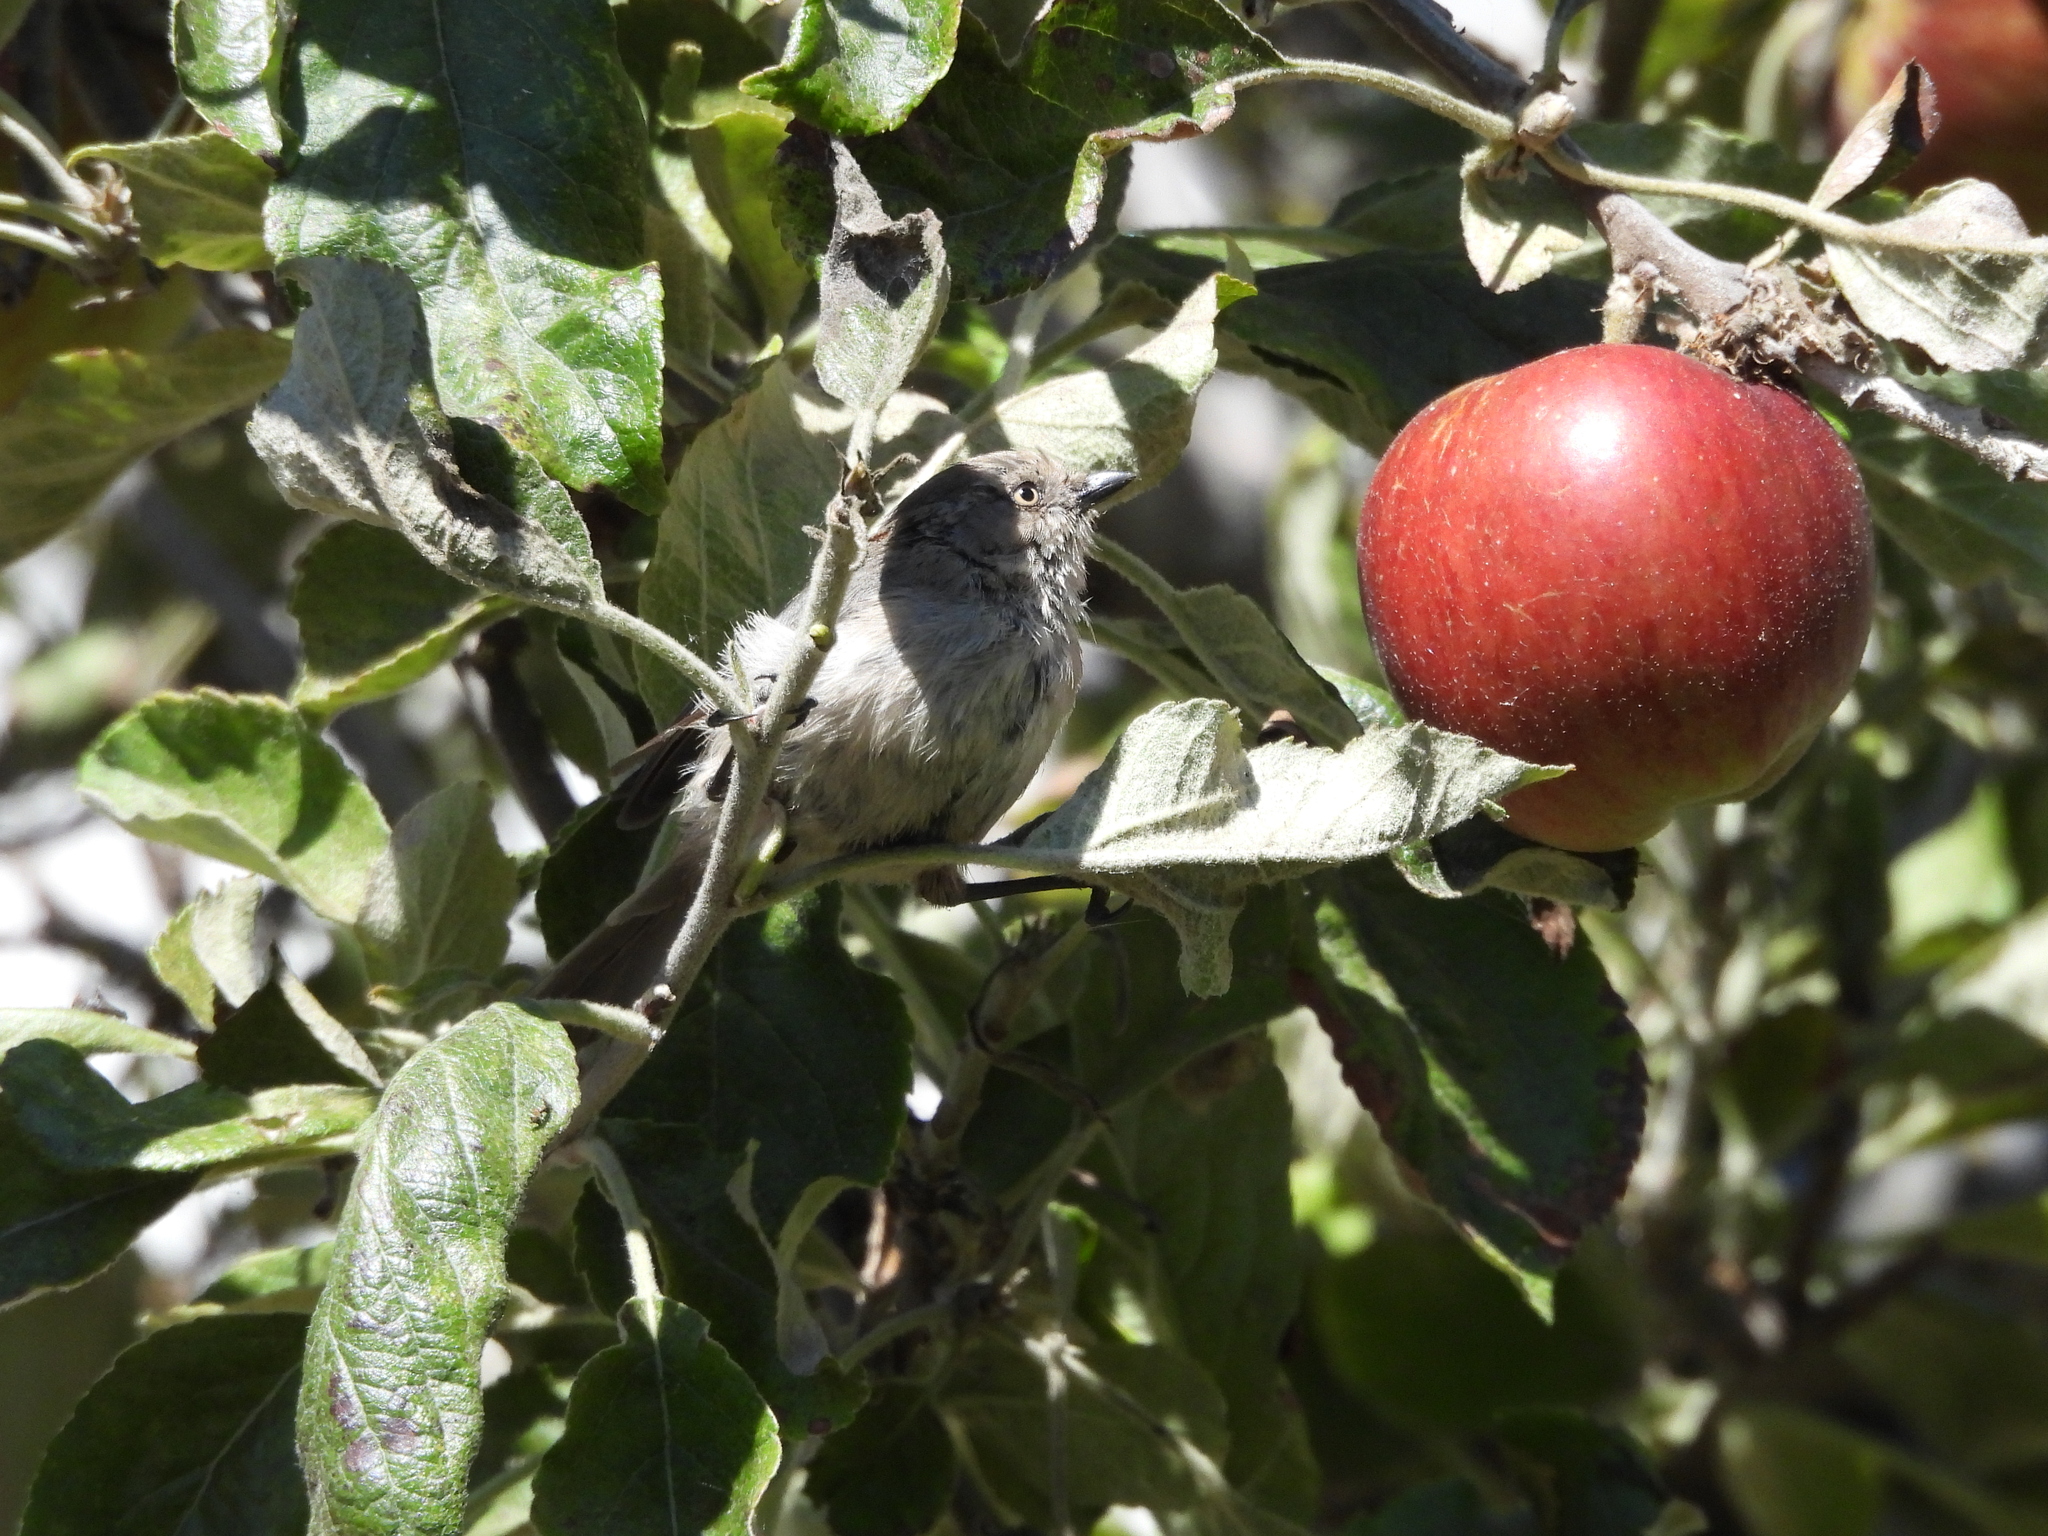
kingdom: Animalia
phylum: Chordata
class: Aves
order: Passeriformes
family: Aegithalidae
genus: Psaltriparus
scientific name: Psaltriparus minimus
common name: American bushtit
